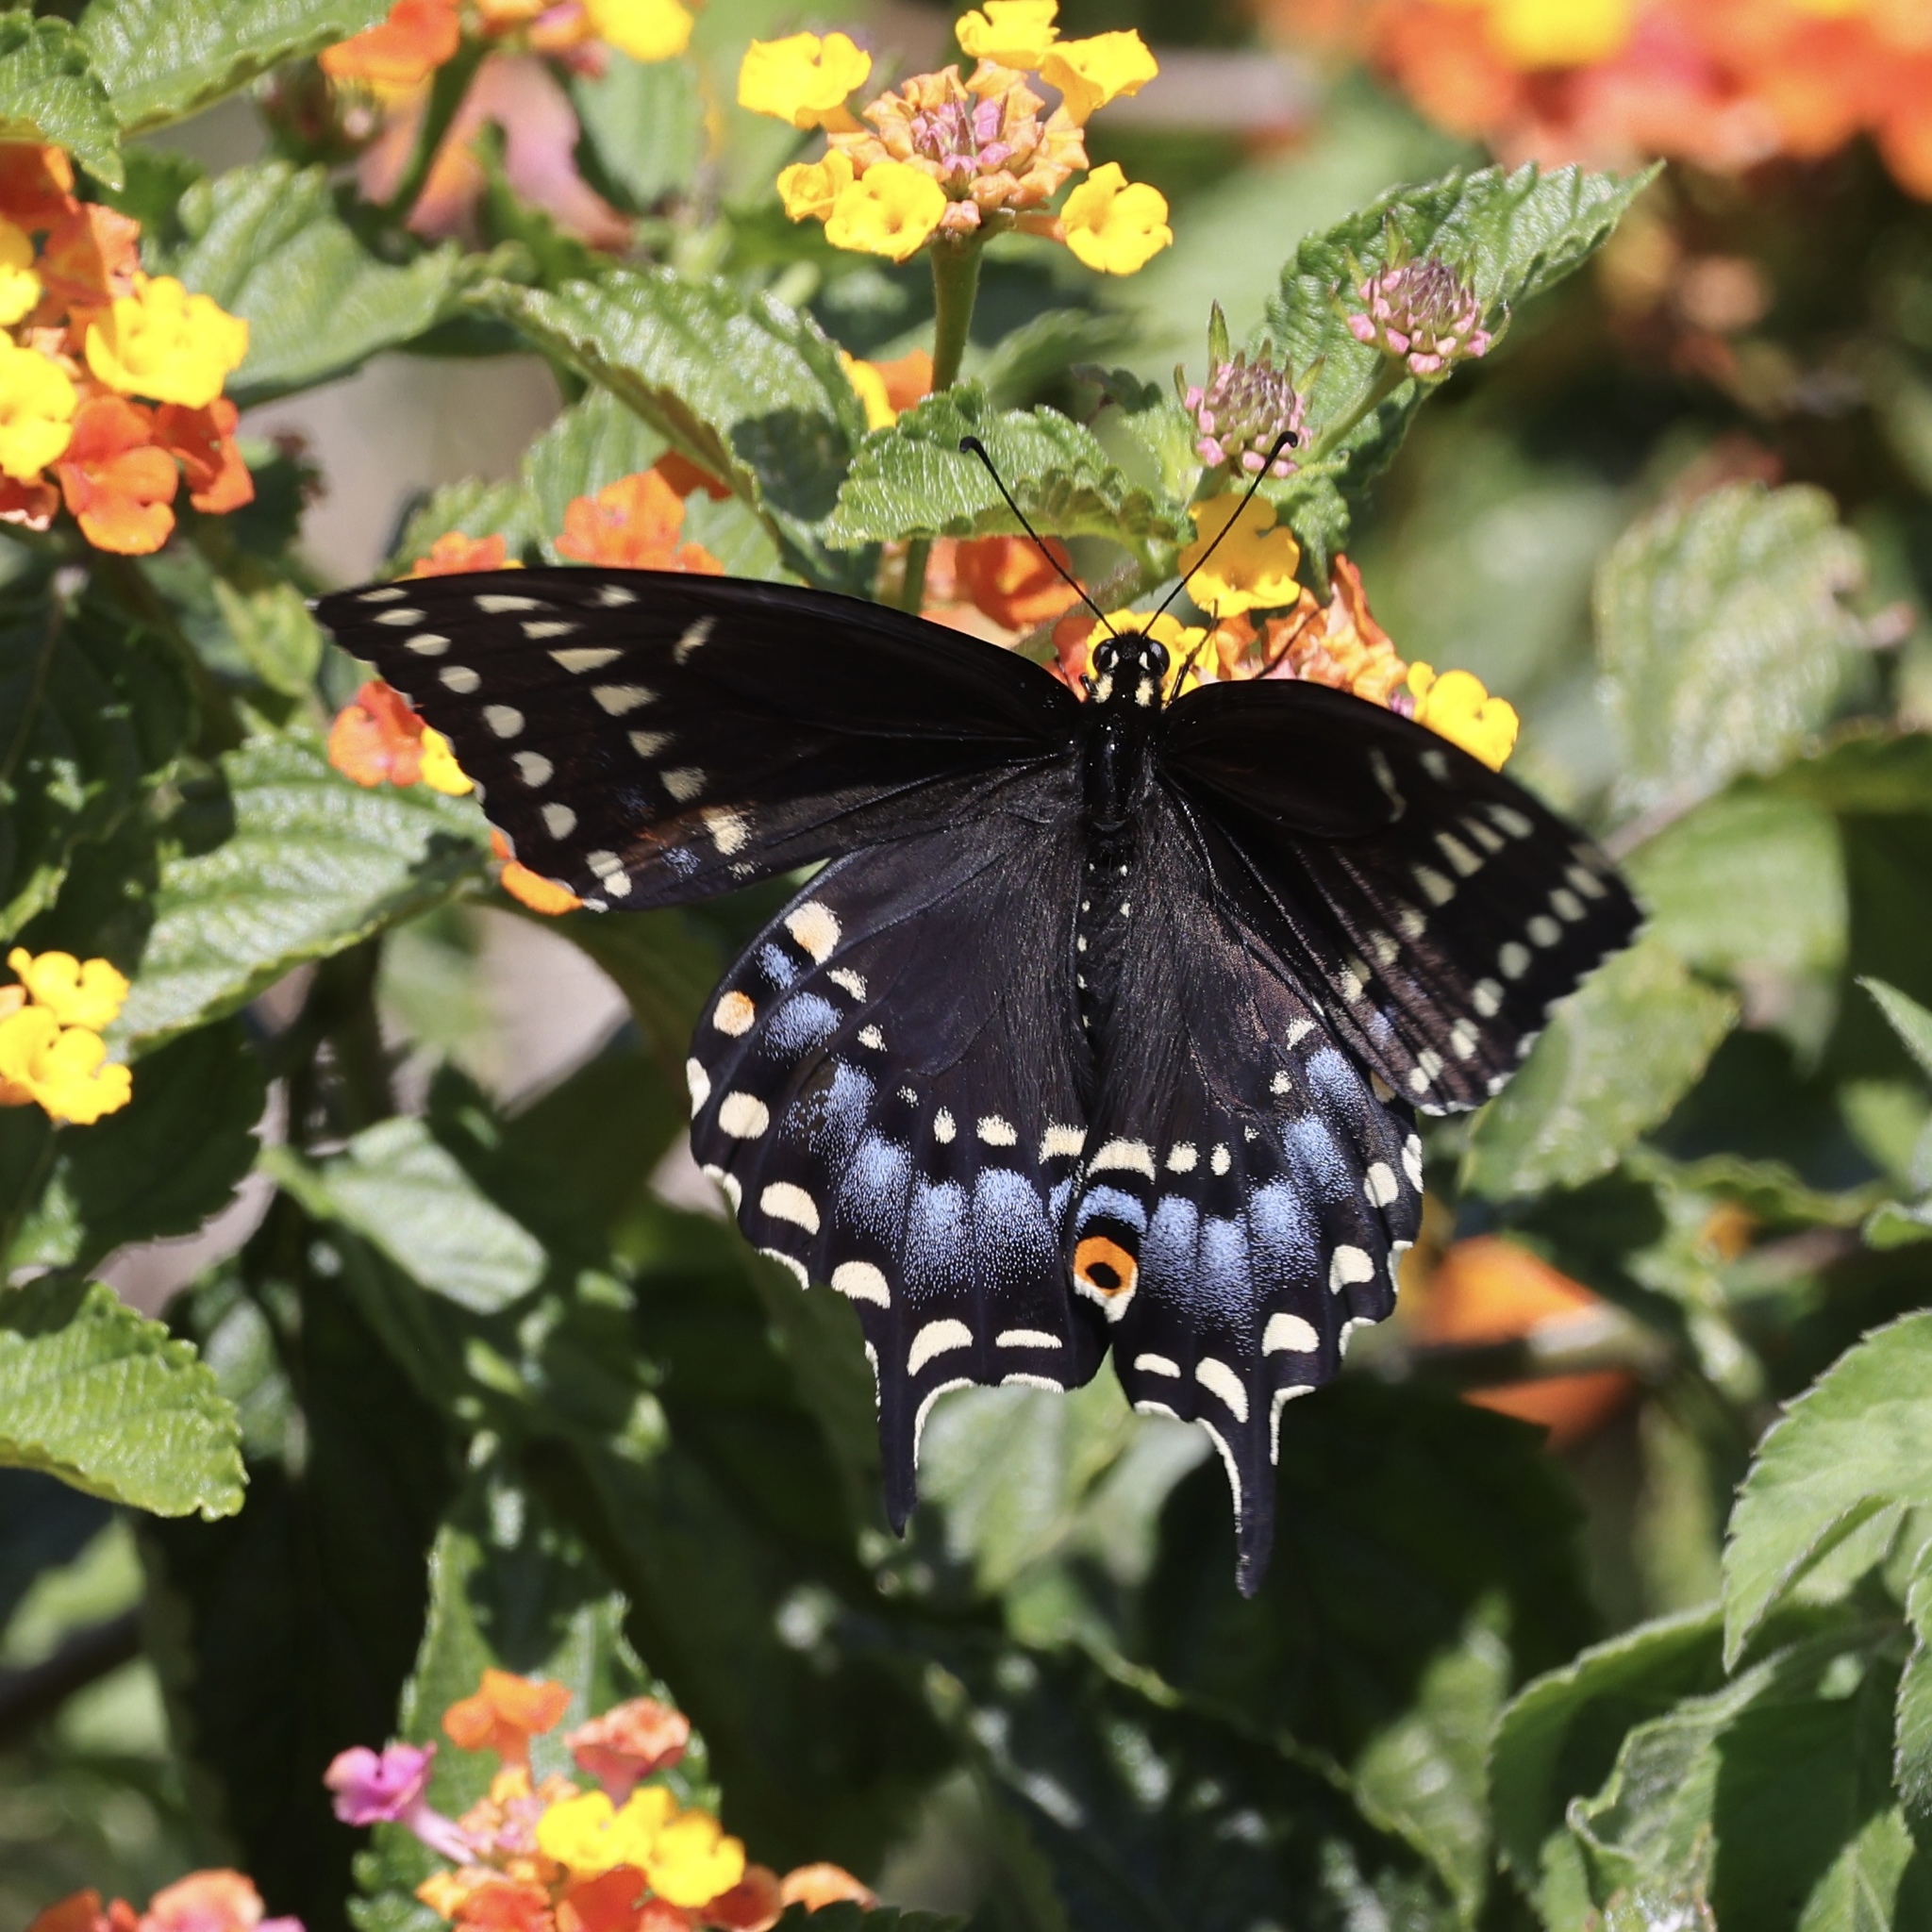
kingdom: Animalia
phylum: Arthropoda
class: Insecta
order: Lepidoptera
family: Papilionidae
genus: Papilio
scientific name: Papilio polyxenes
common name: Black swallowtail
